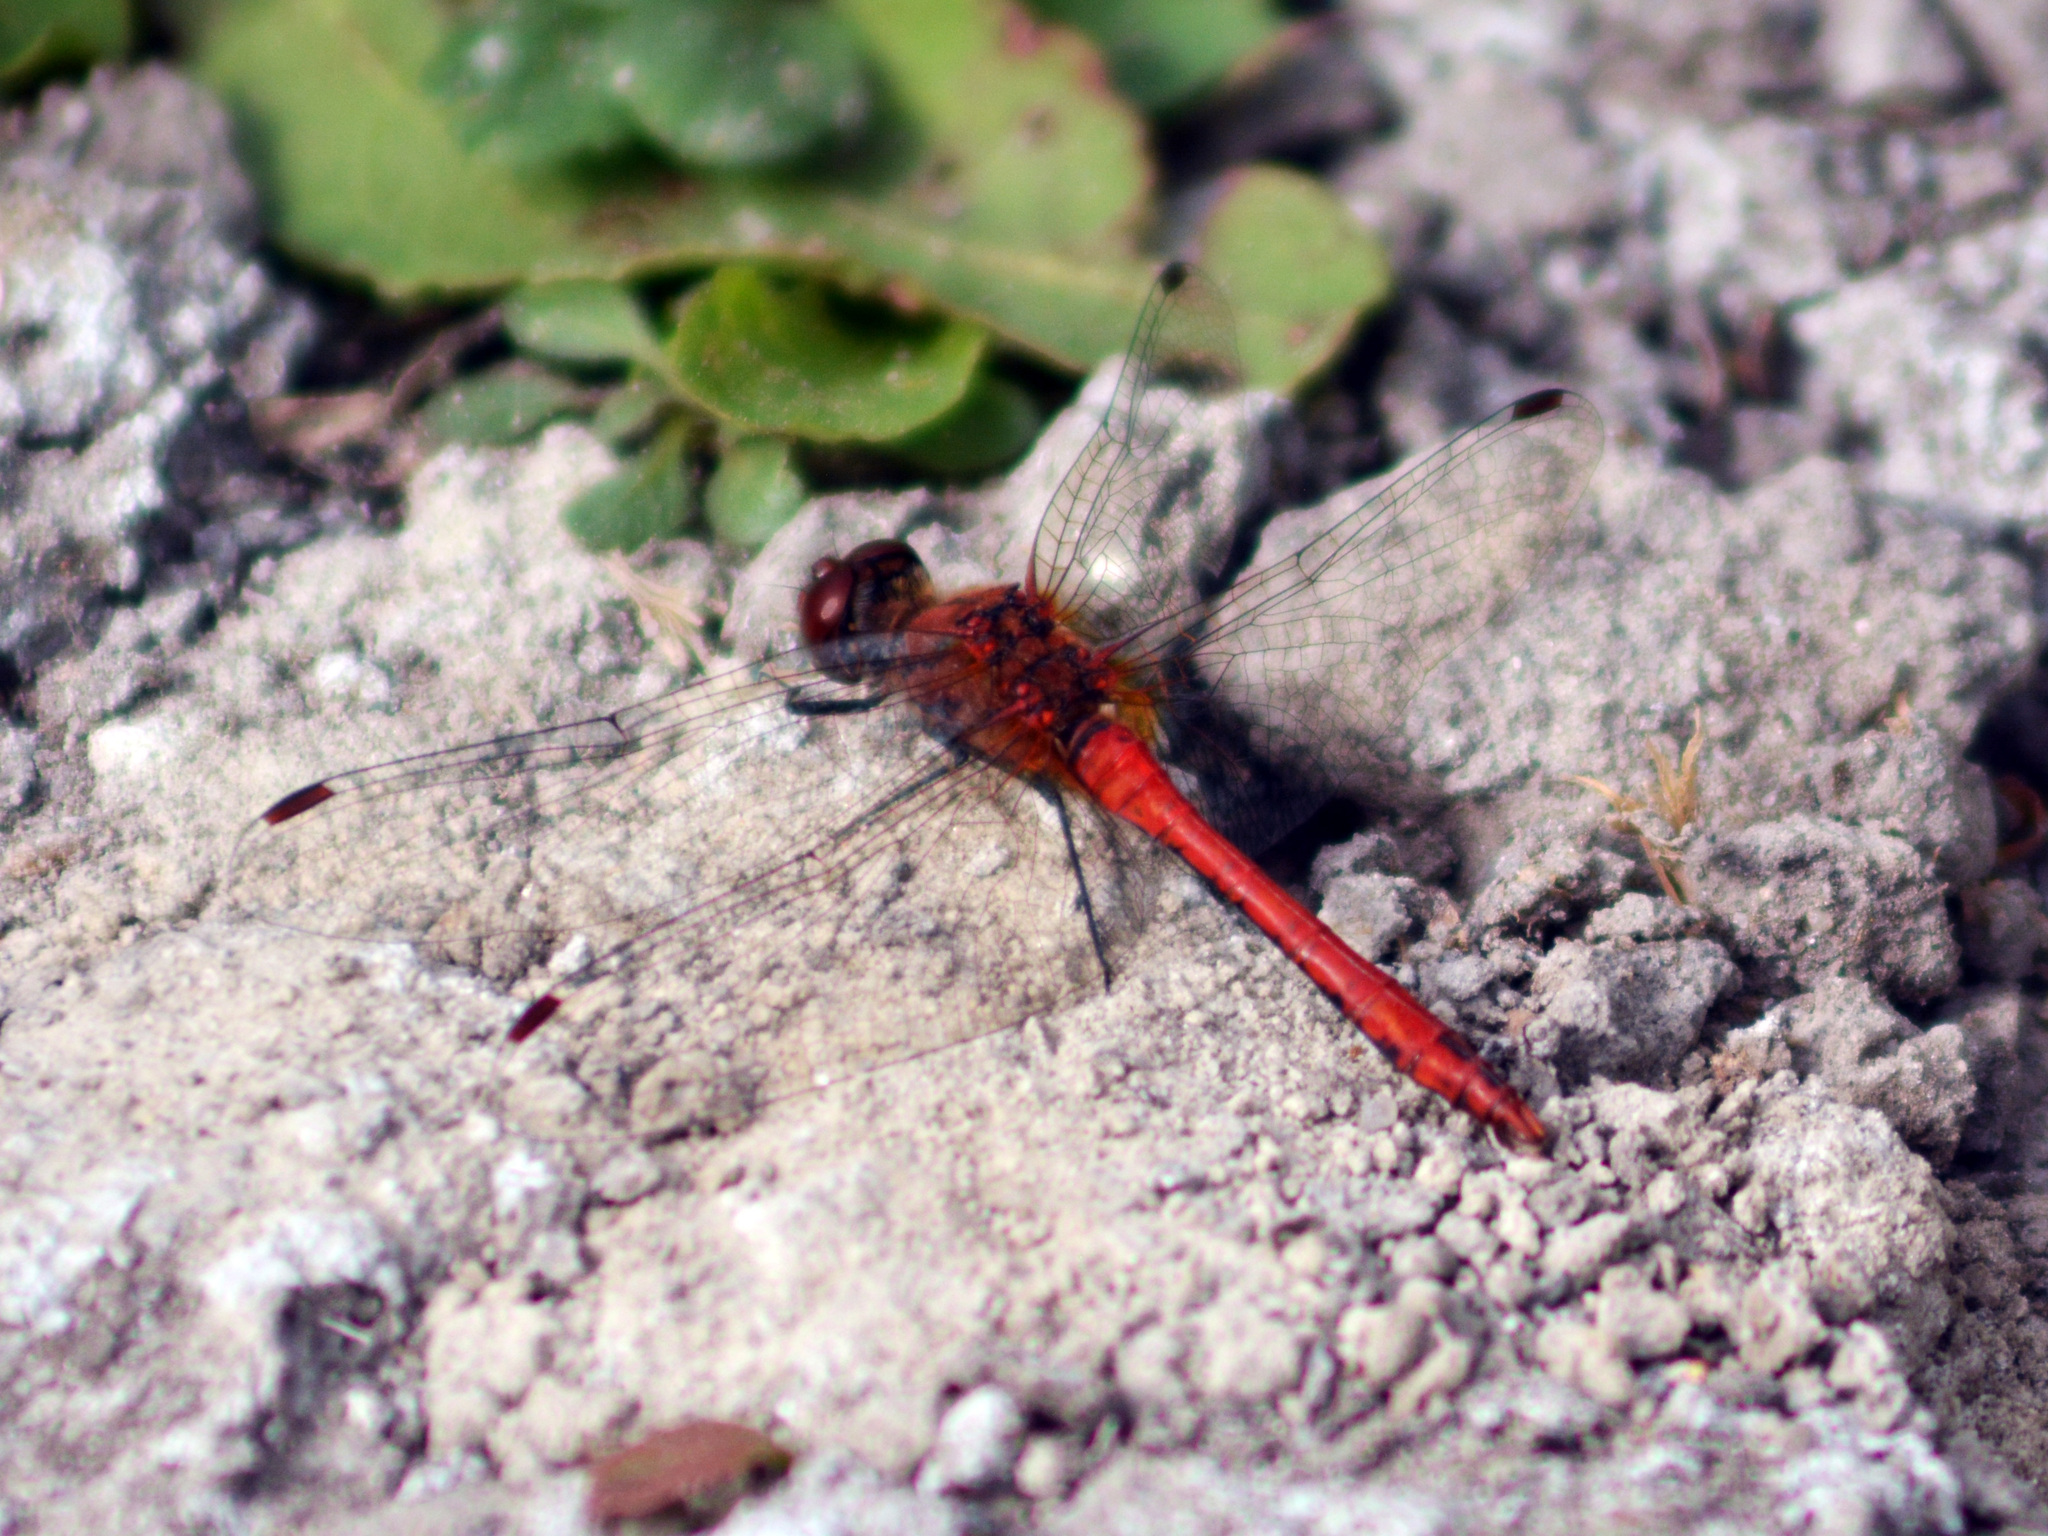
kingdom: Animalia
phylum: Arthropoda
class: Insecta
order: Odonata
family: Libellulidae
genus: Sympetrum
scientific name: Sympetrum sanguineum
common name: Ruddy darter
